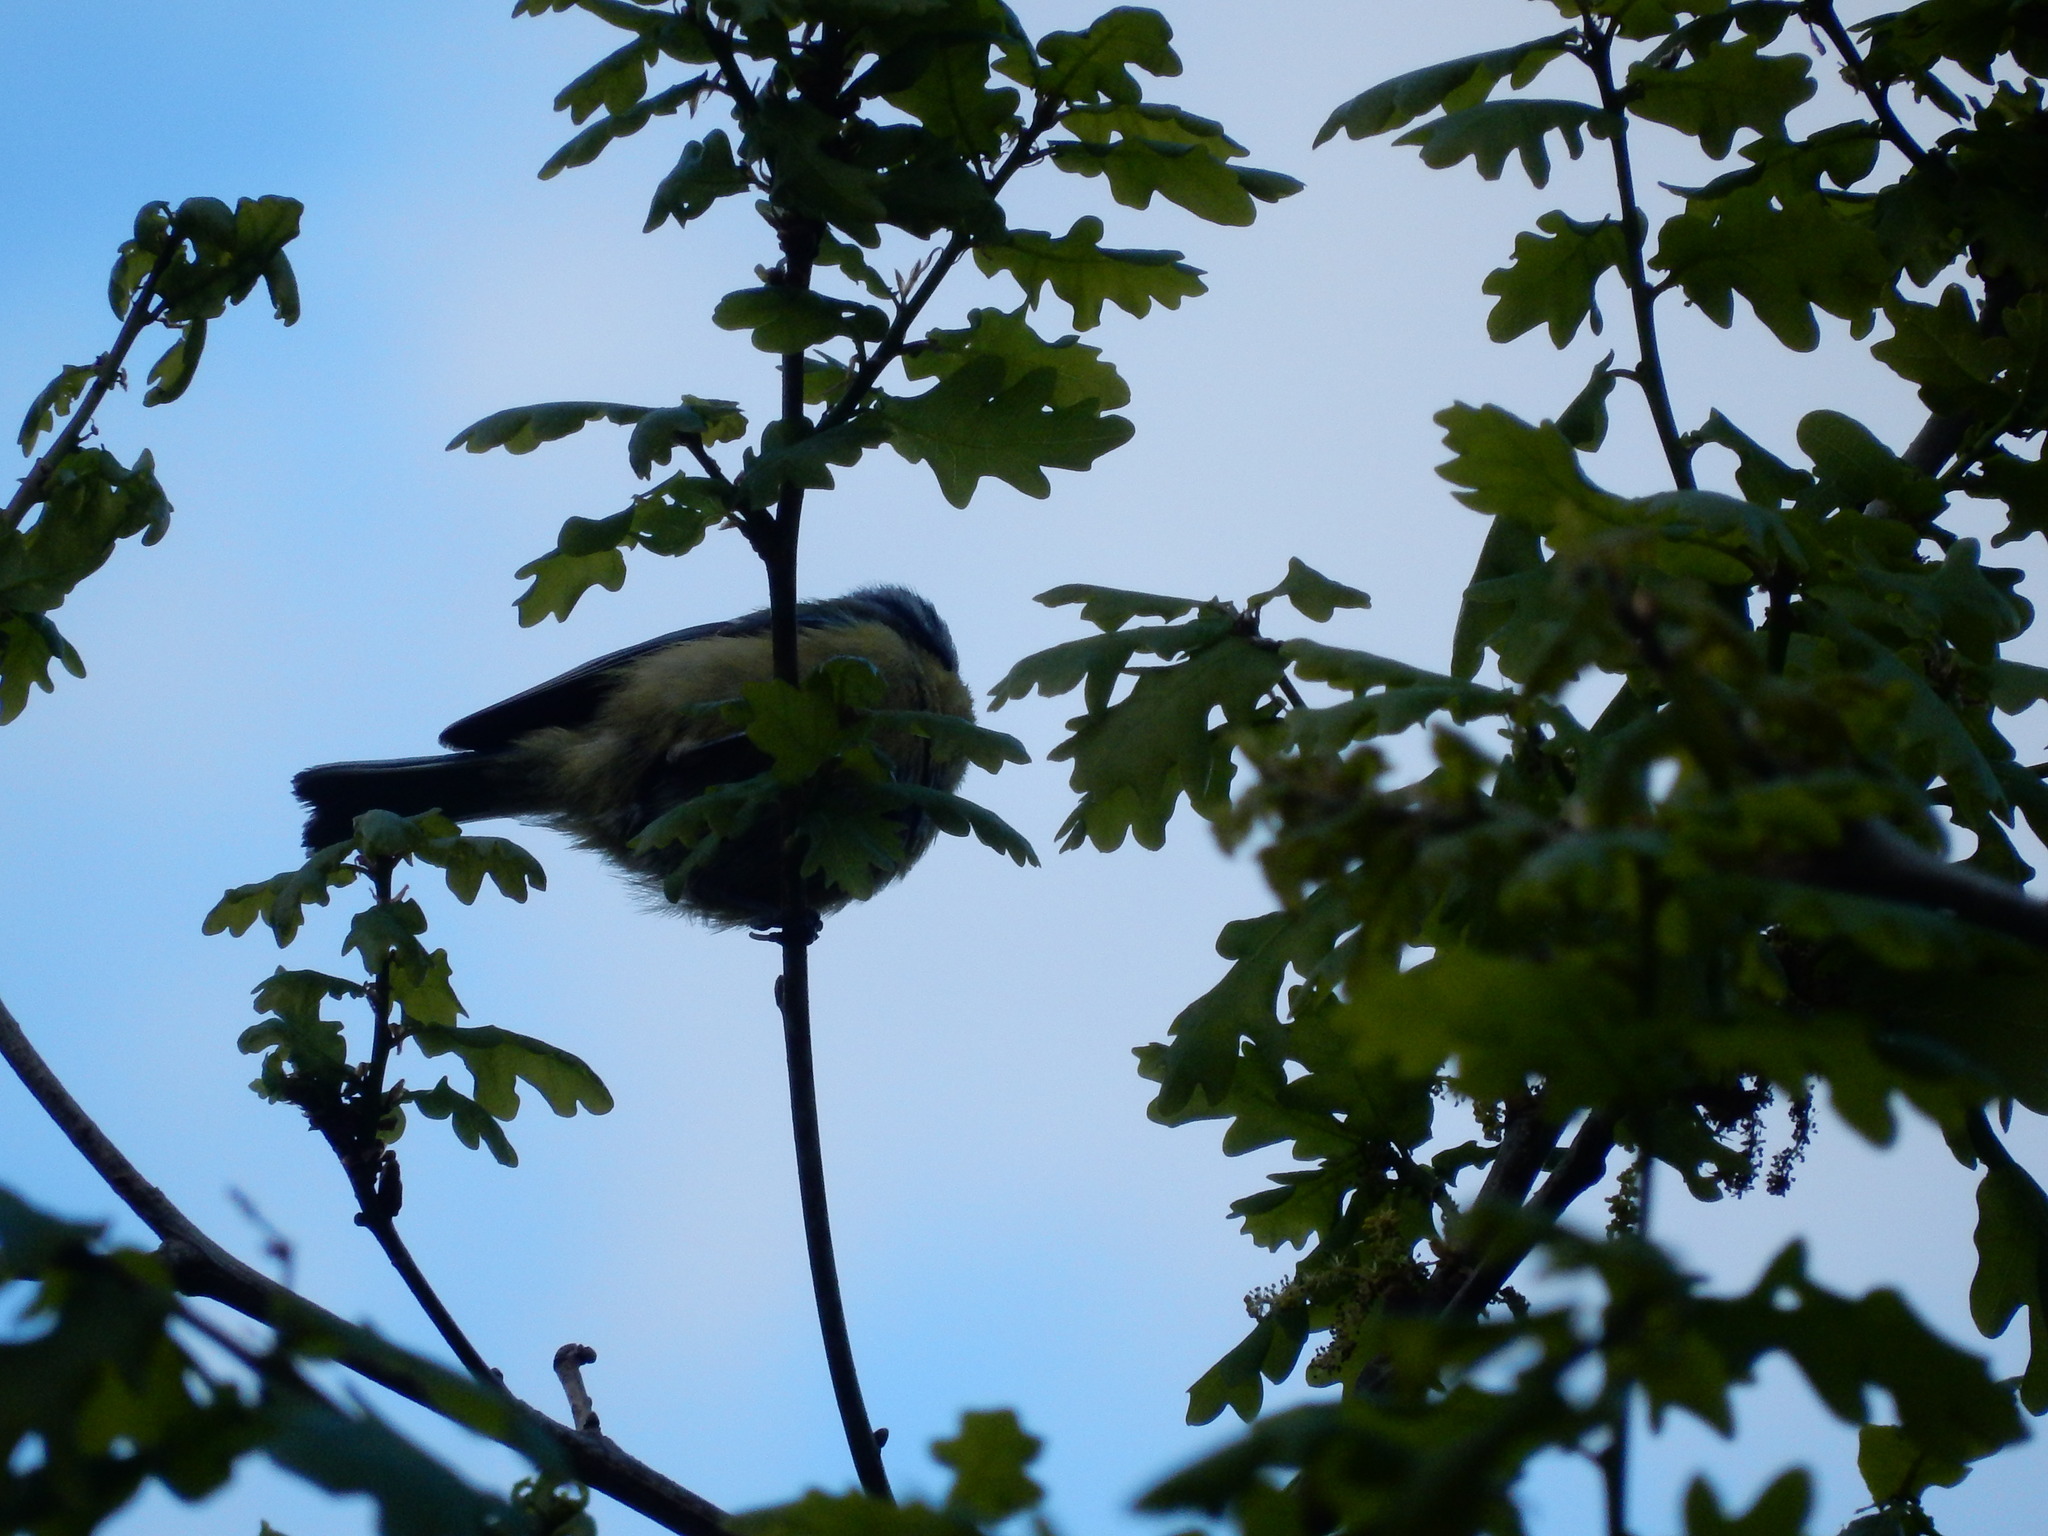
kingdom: Animalia
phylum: Chordata
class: Aves
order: Passeriformes
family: Paridae
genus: Cyanistes
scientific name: Cyanistes caeruleus
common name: Eurasian blue tit
